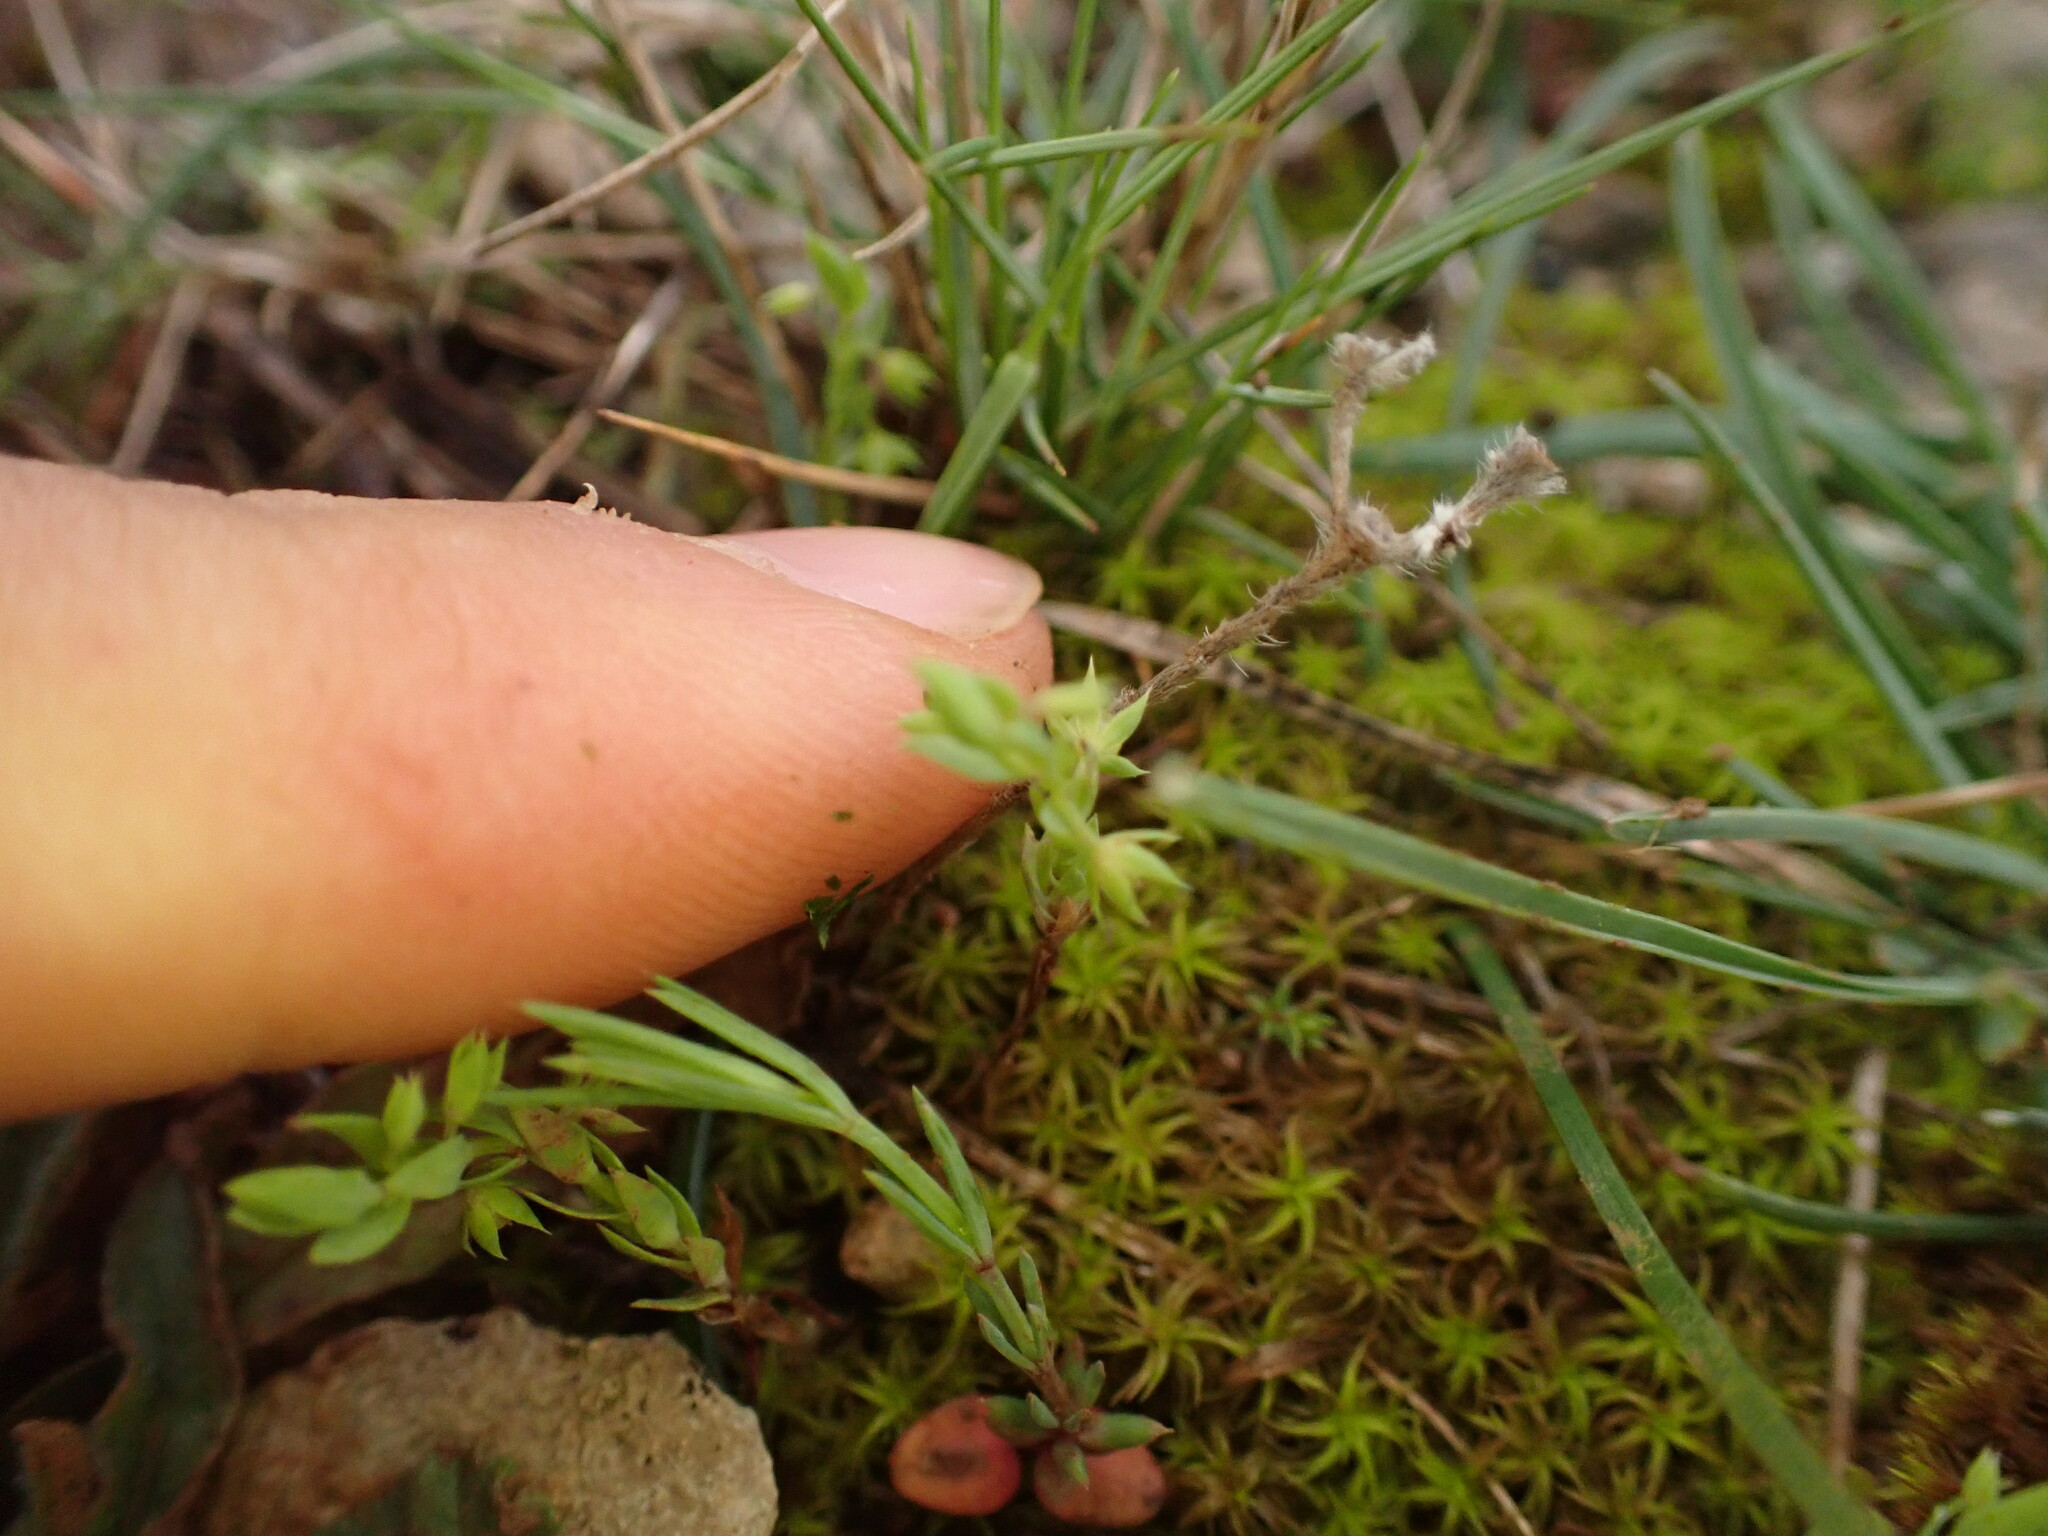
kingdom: Plantae
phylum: Tracheophyta
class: Magnoliopsida
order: Ericales
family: Primulaceae
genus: Lysimachia
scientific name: Lysimachia linum-stellatum
